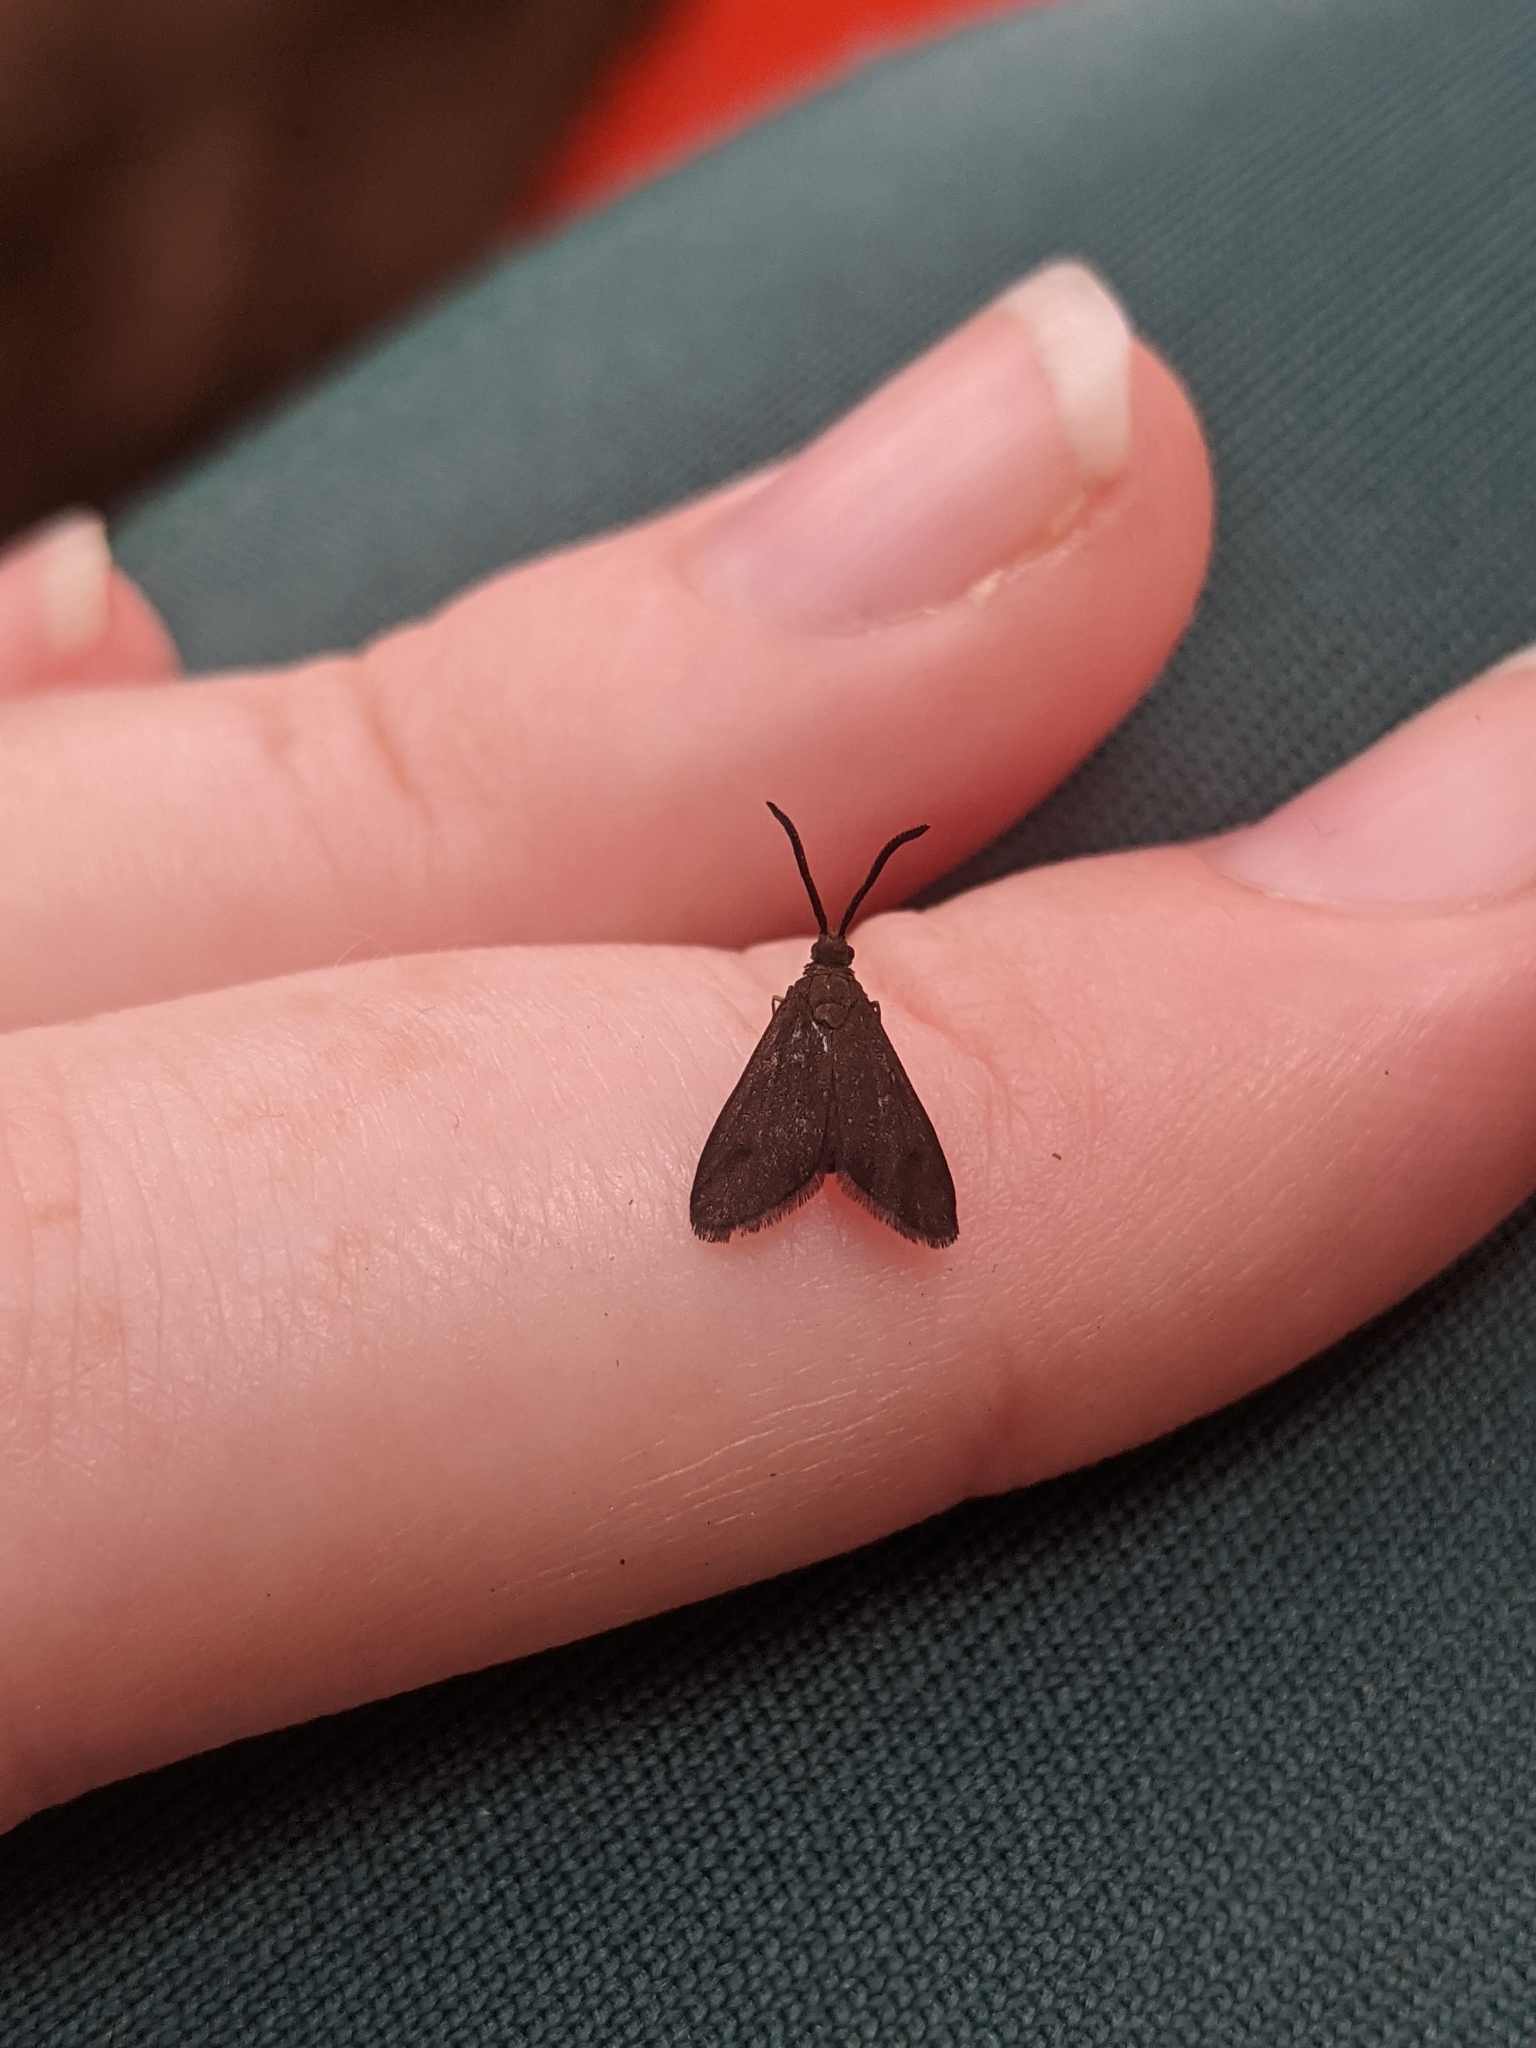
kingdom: Animalia
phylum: Arthropoda
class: Insecta
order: Lepidoptera
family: Zygaenidae
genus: Onceropyga
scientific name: Onceropyga anelia
